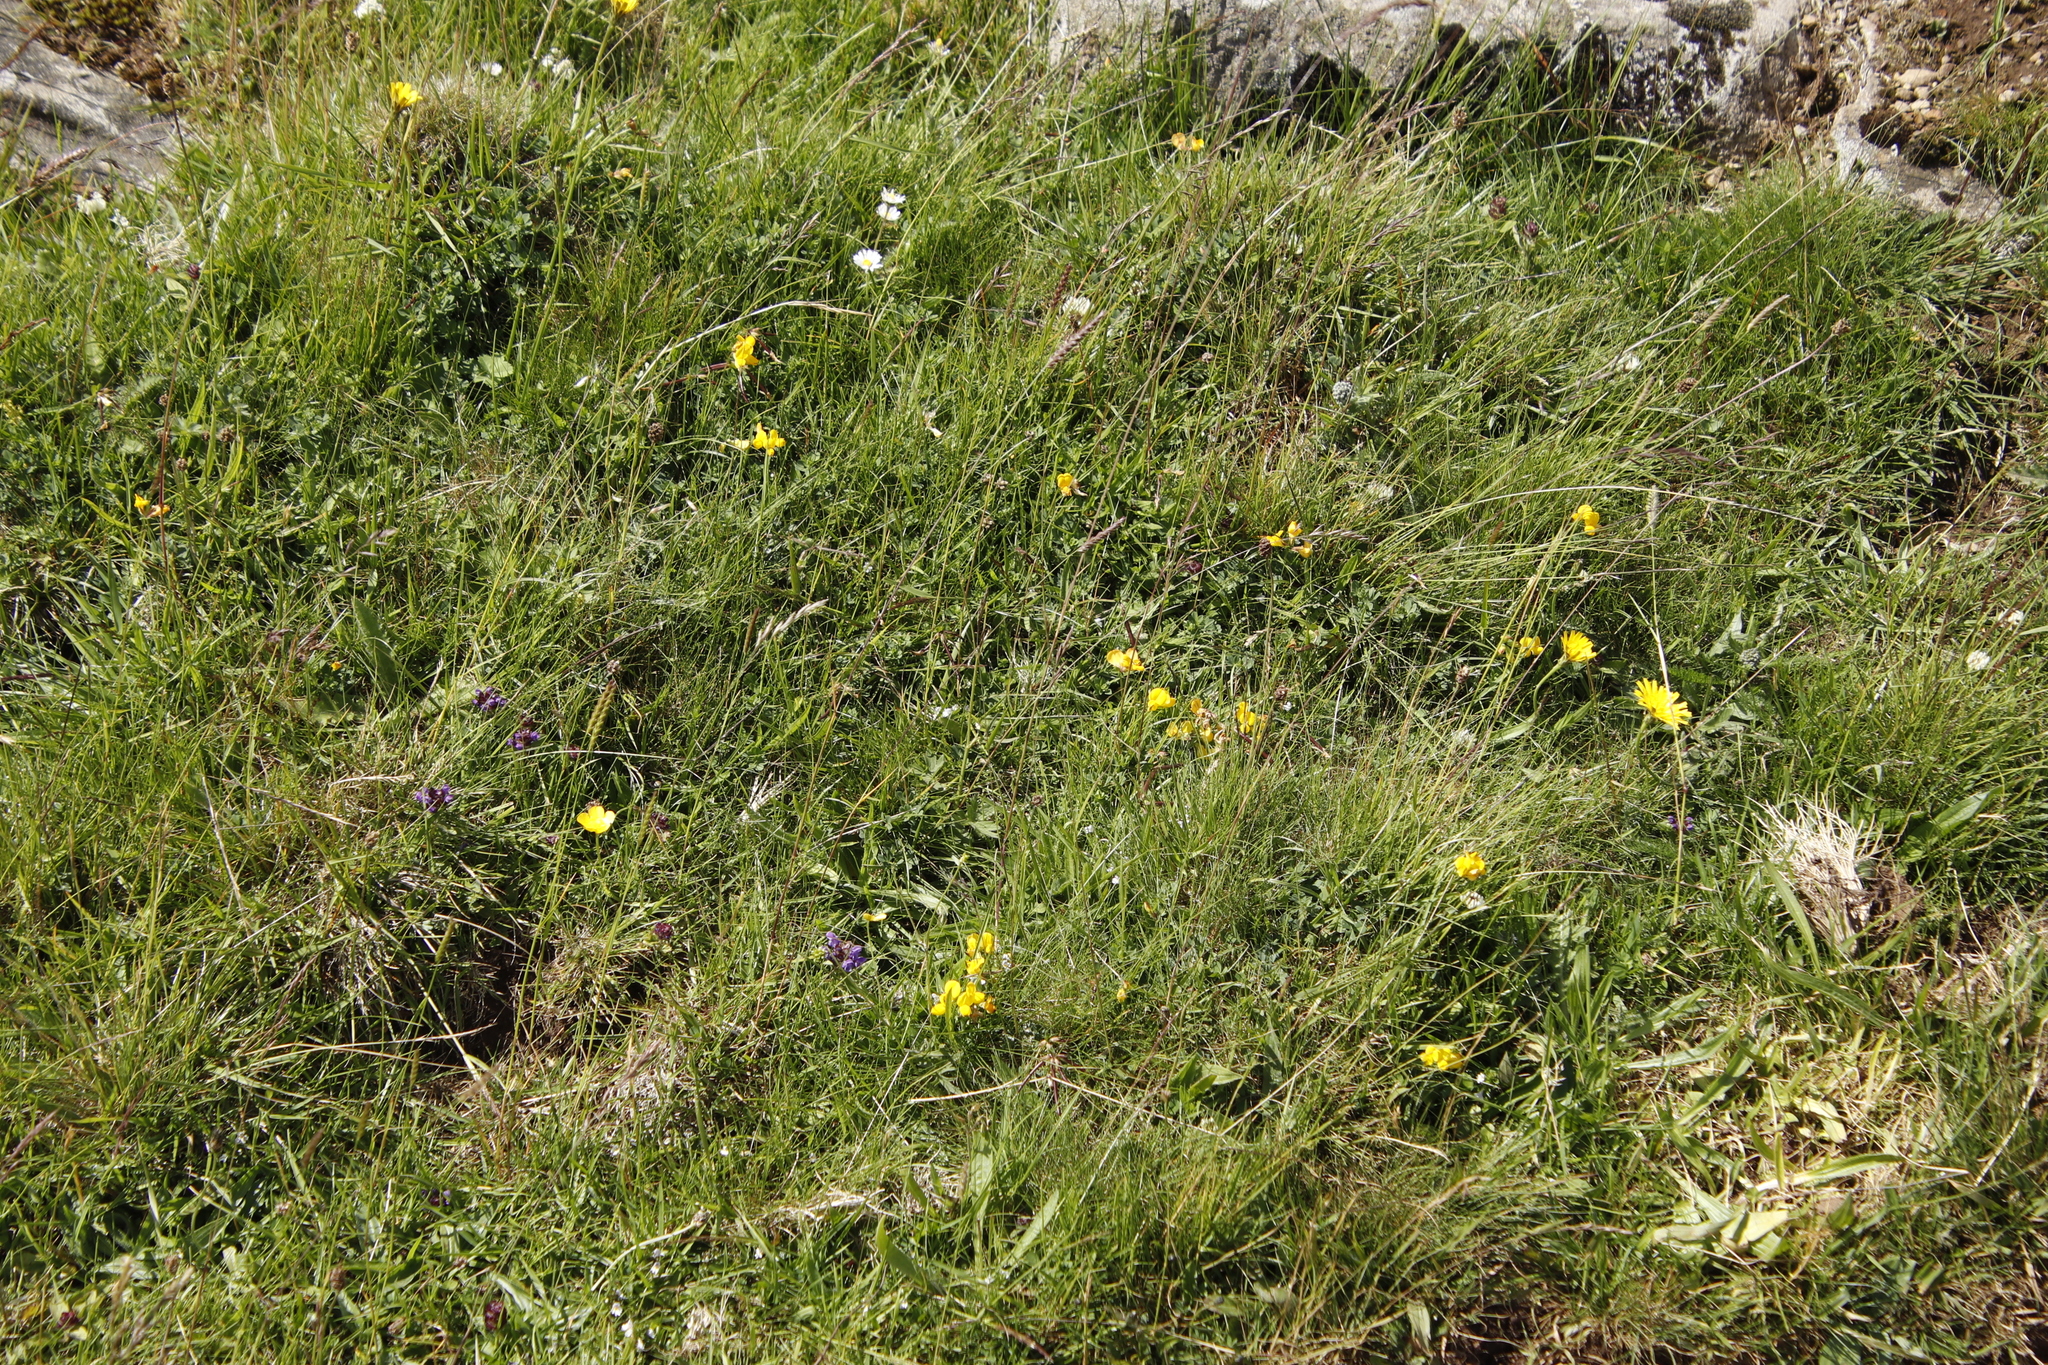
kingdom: Plantae
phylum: Tracheophyta
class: Magnoliopsida
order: Fabales
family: Fabaceae
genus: Lotus
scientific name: Lotus corniculatus
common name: Common bird's-foot-trefoil
